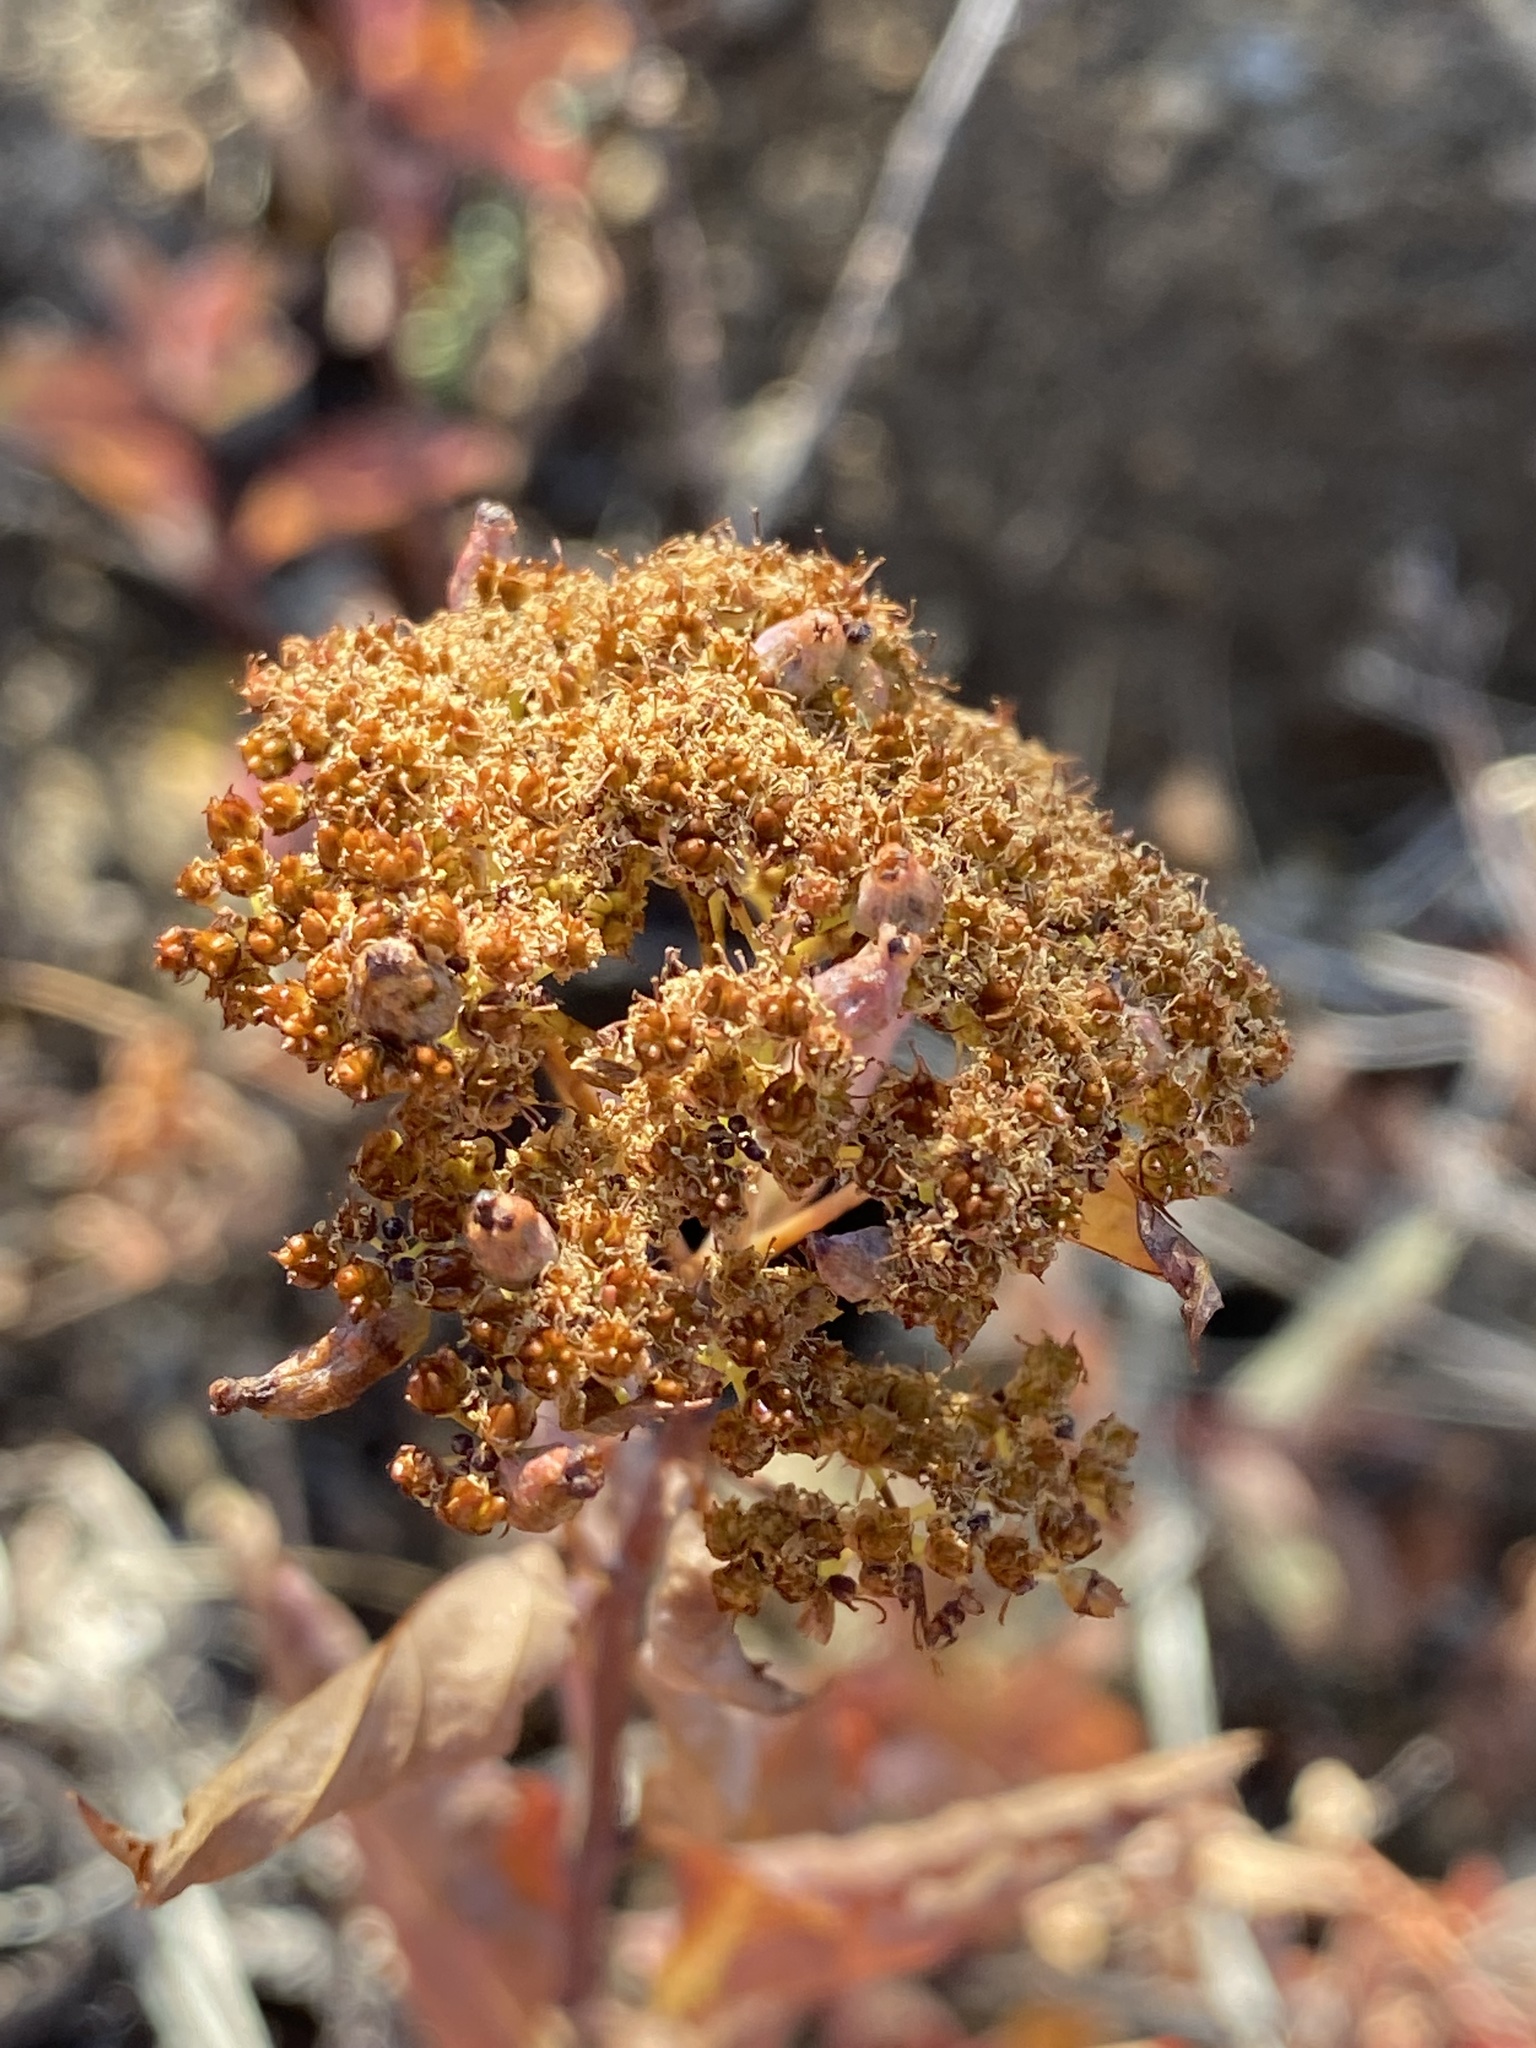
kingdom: Plantae
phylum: Tracheophyta
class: Magnoliopsida
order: Rosales
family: Rosaceae
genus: Spiraea
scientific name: Spiraea lucida
